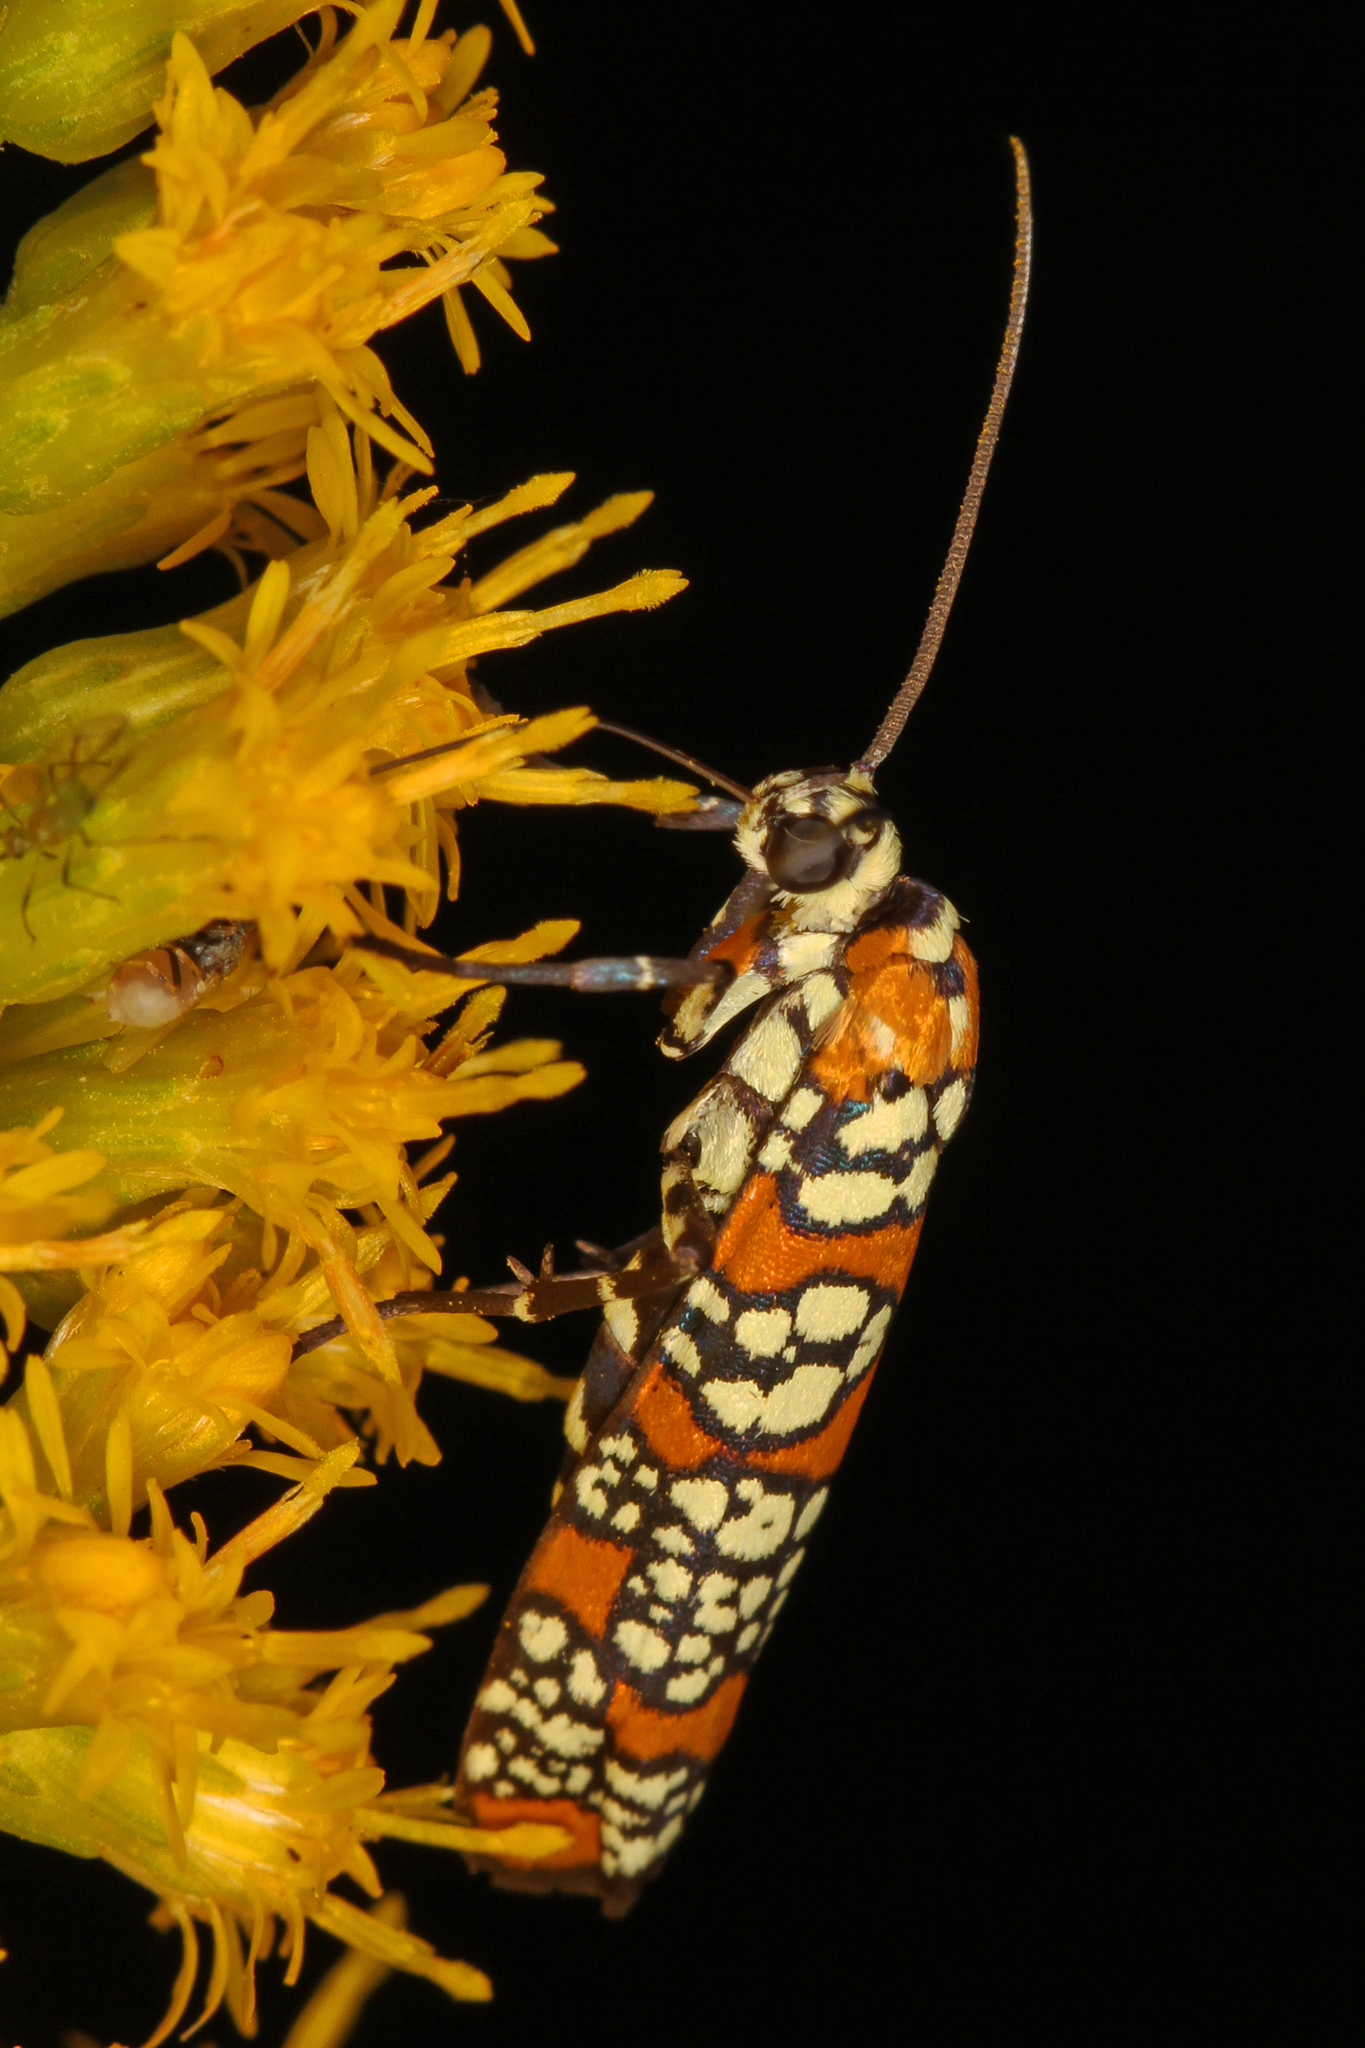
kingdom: Animalia
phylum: Arthropoda
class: Insecta
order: Lepidoptera
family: Attevidae
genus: Atteva
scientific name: Atteva punctella
